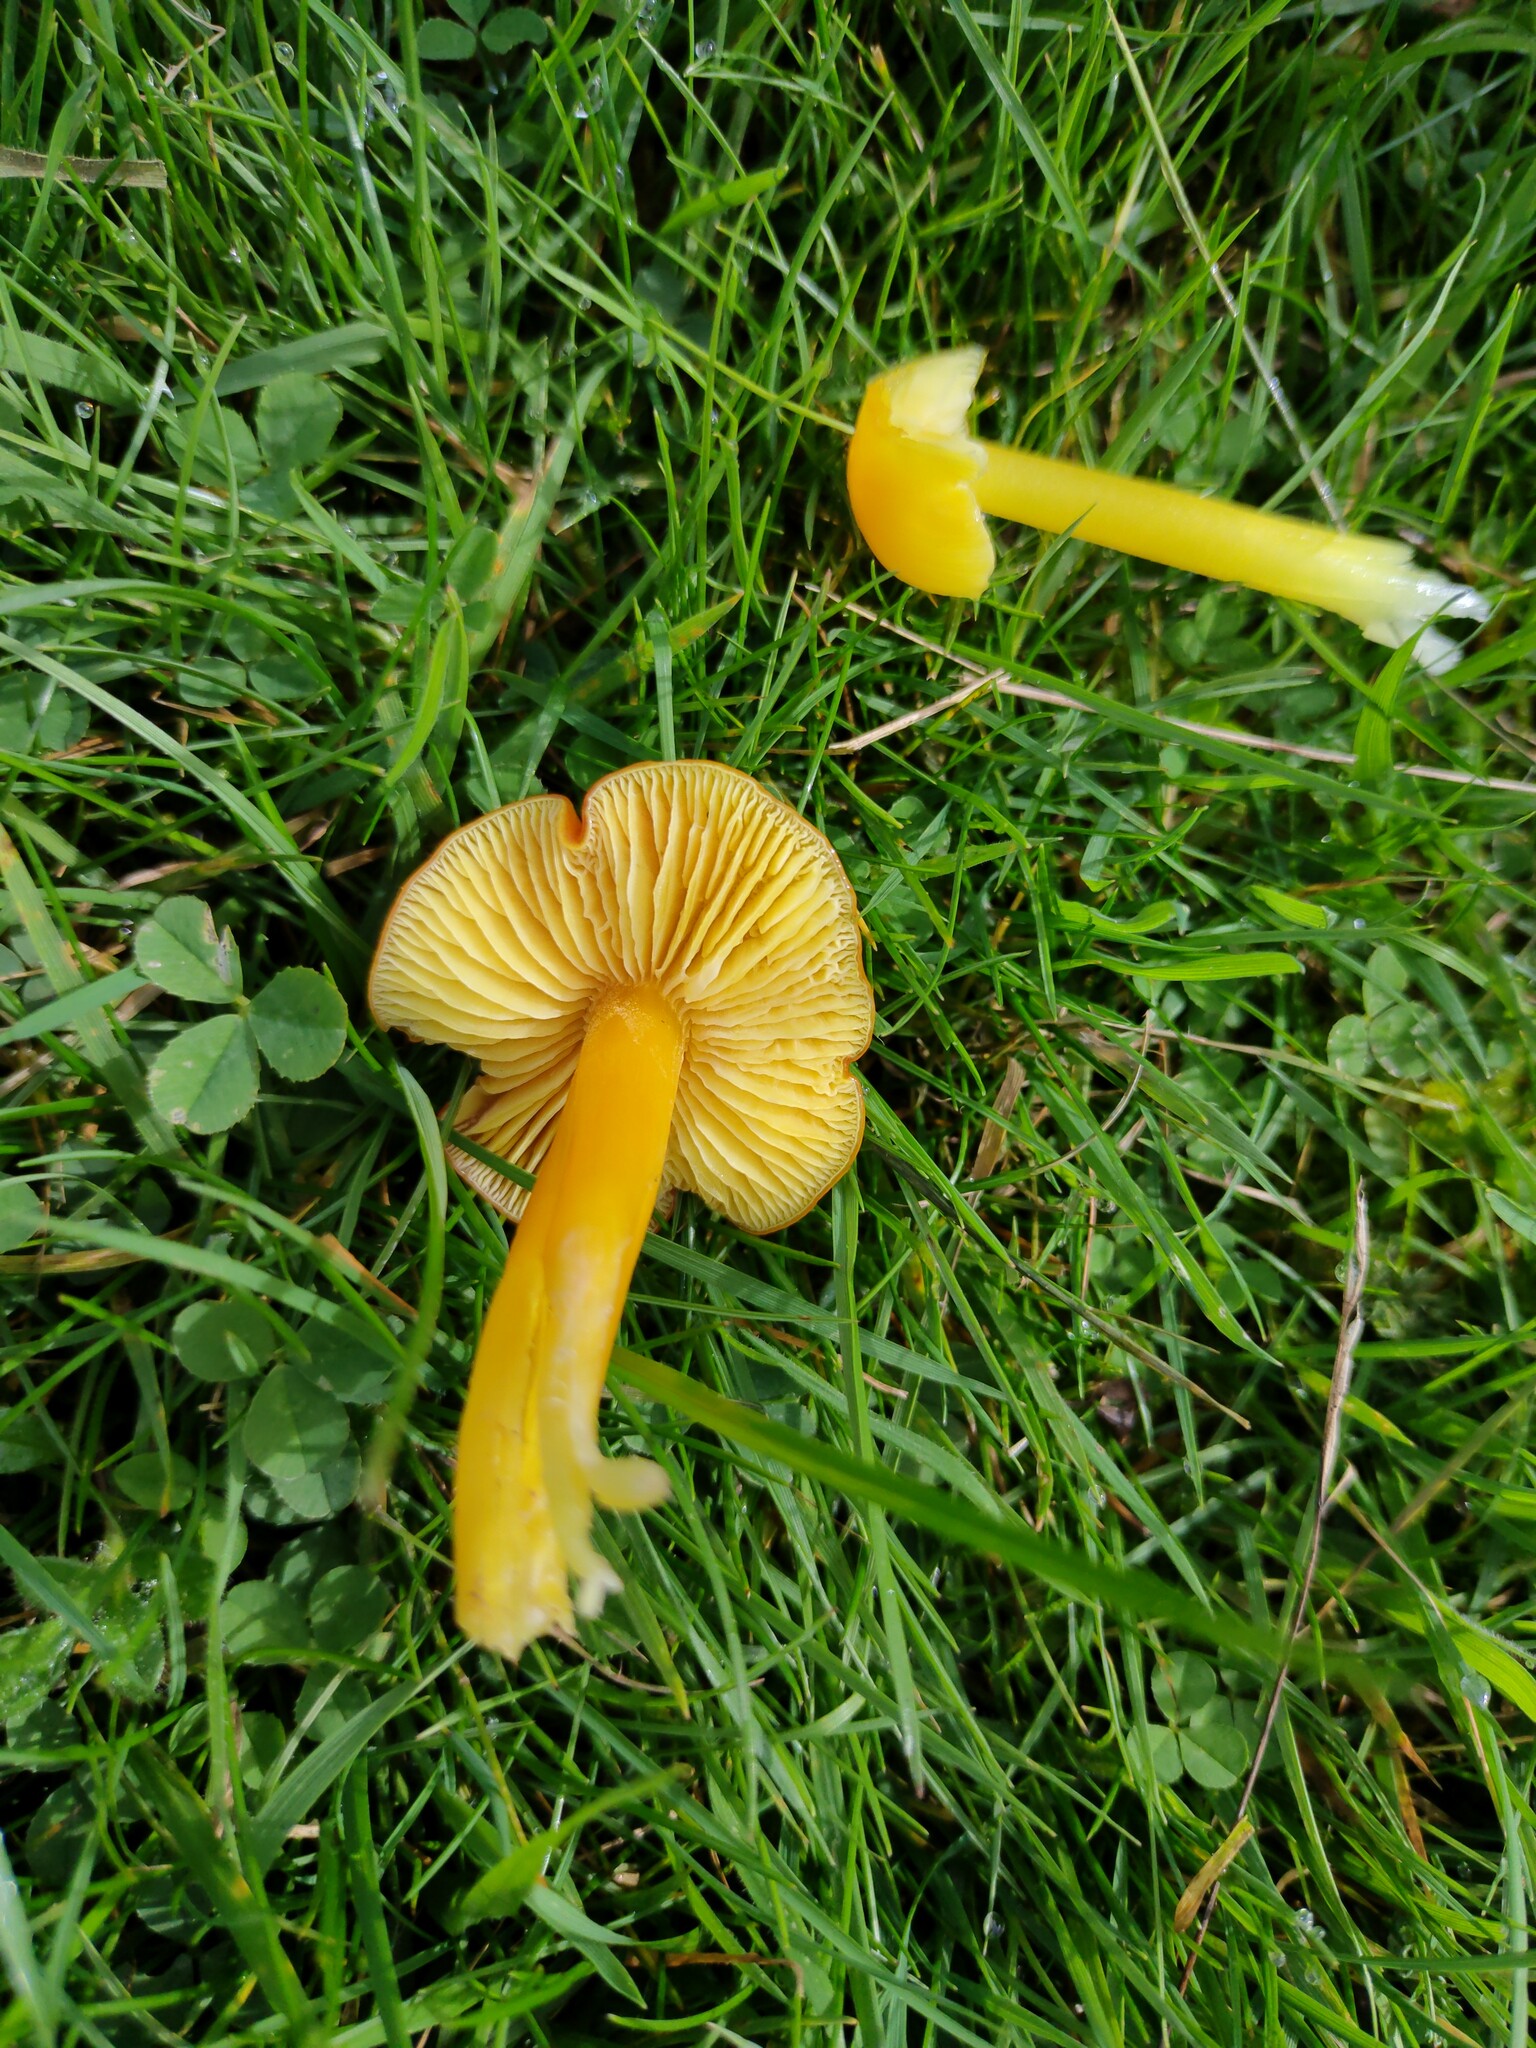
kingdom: Fungi
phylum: Basidiomycota
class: Agaricomycetes
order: Agaricales
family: Hygrophoraceae
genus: Hygrocybe
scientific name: Hygrocybe chlorophana
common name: Golden waxcap
